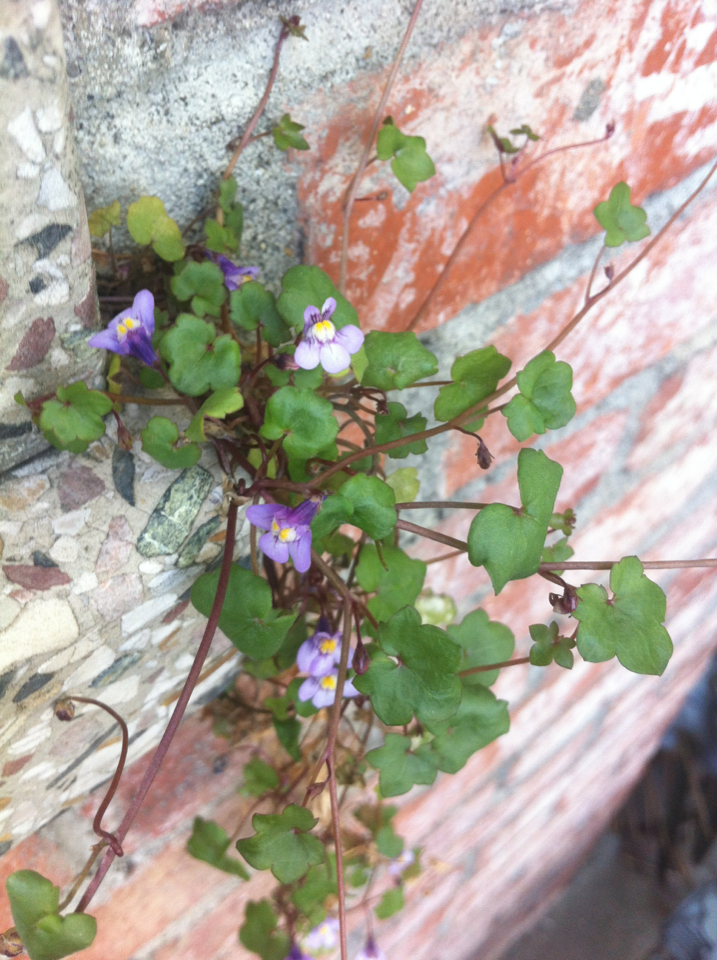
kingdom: Plantae
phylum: Tracheophyta
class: Magnoliopsida
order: Lamiales
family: Plantaginaceae
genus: Cymbalaria
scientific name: Cymbalaria muralis
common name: Ivy-leaved toadflax
